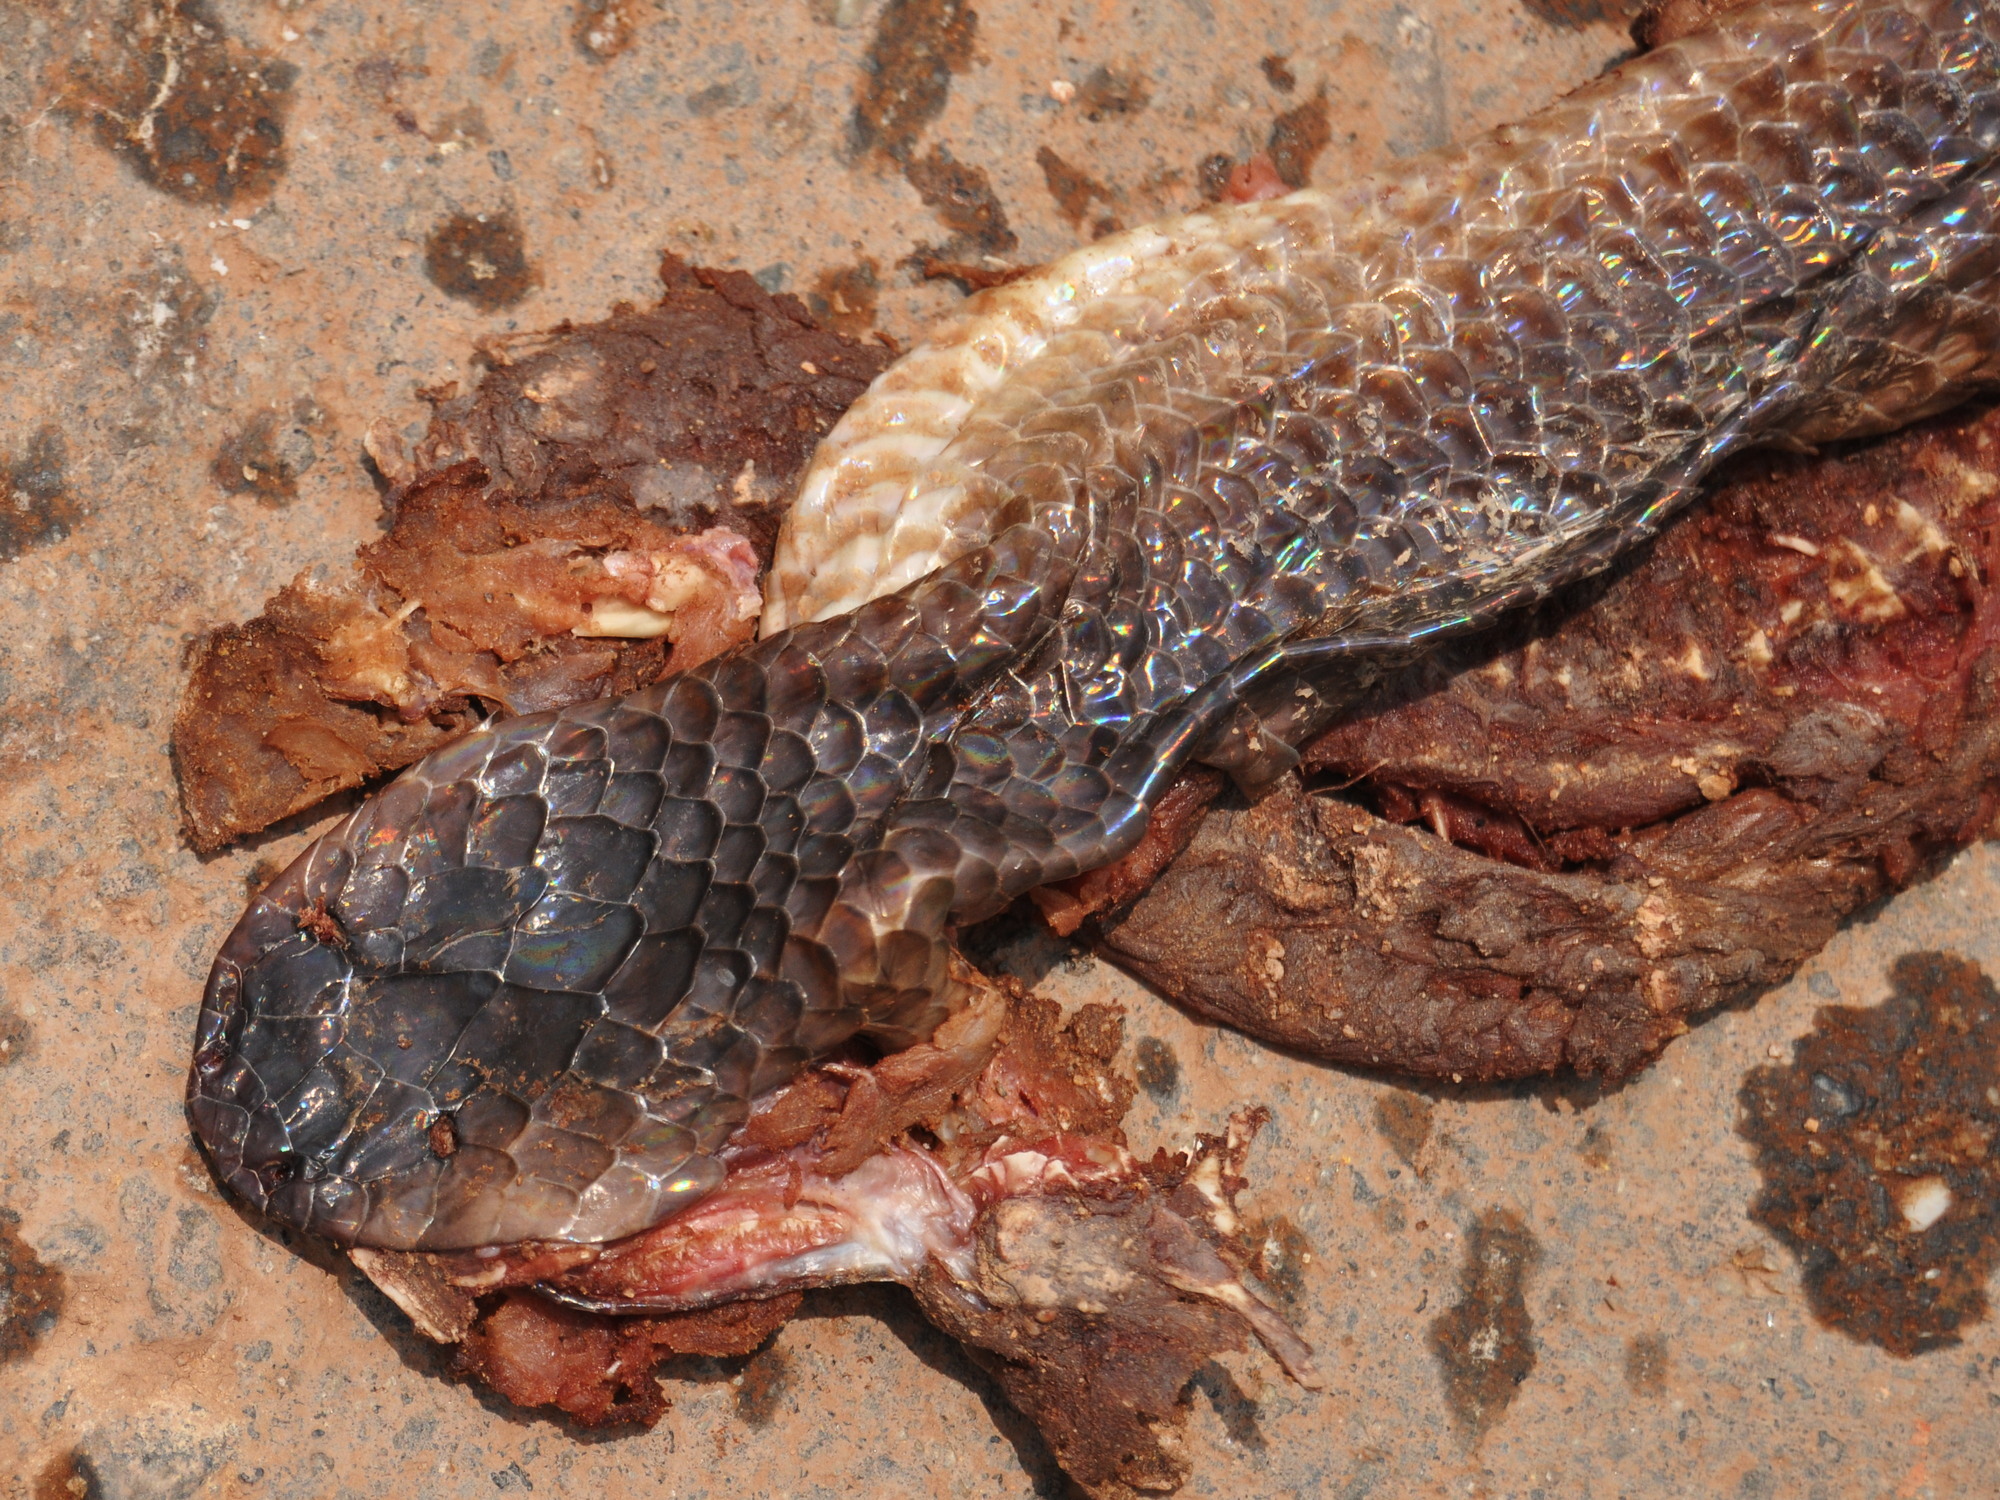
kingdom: Animalia
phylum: Chordata
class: Squamata
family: Xenopeltidae
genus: Xenopeltis
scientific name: Xenopeltis unicolor
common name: Sunbeam snake
